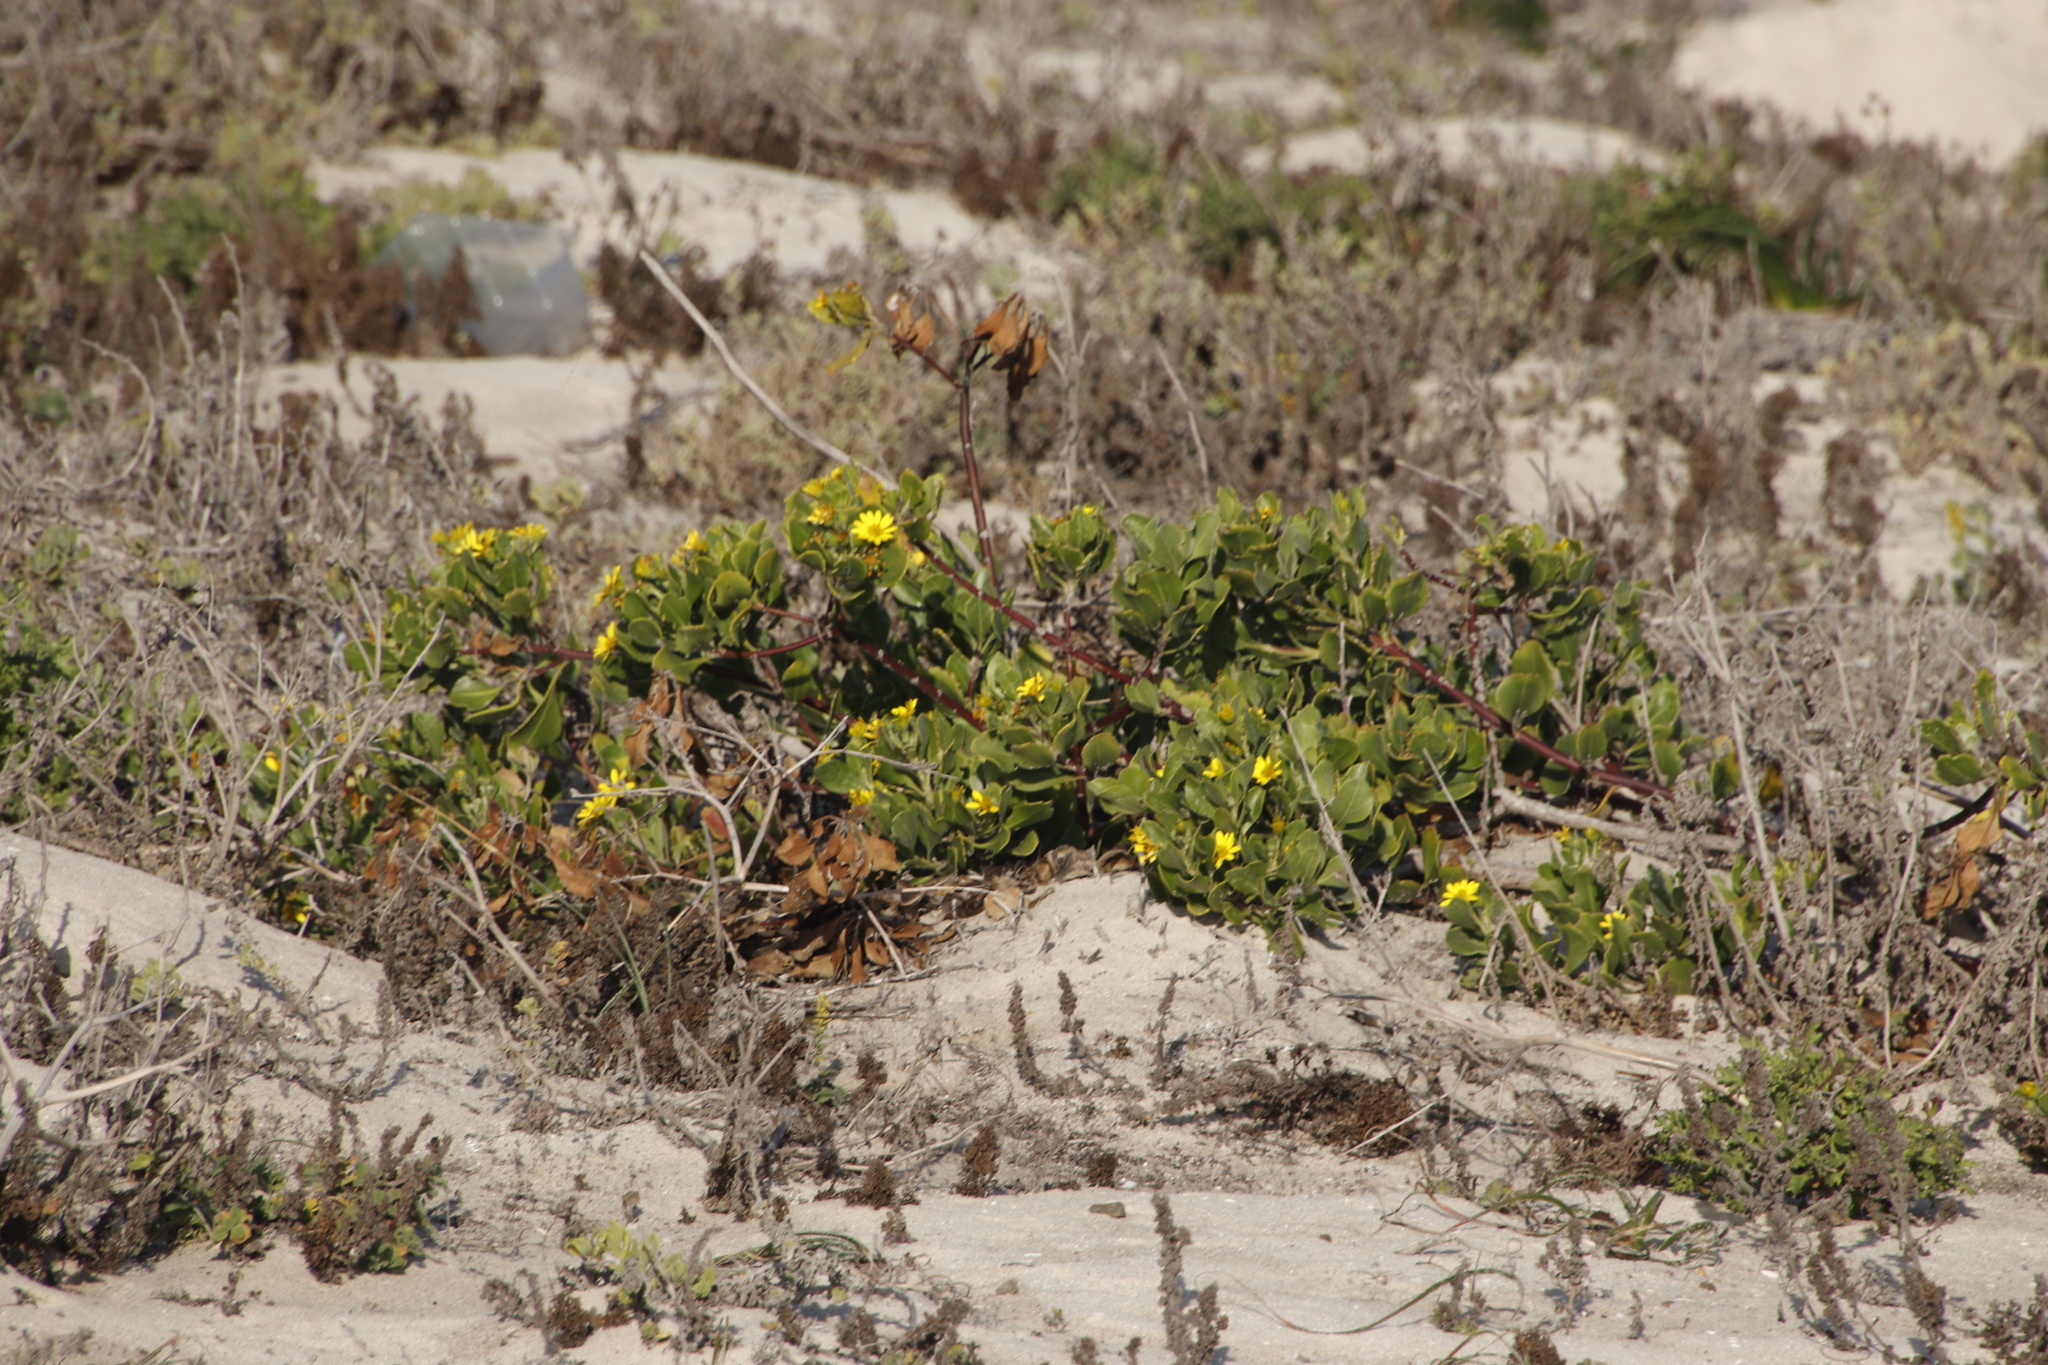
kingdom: Plantae
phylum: Tracheophyta
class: Magnoliopsida
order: Asterales
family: Asteraceae
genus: Osteospermum
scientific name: Osteospermum moniliferum
